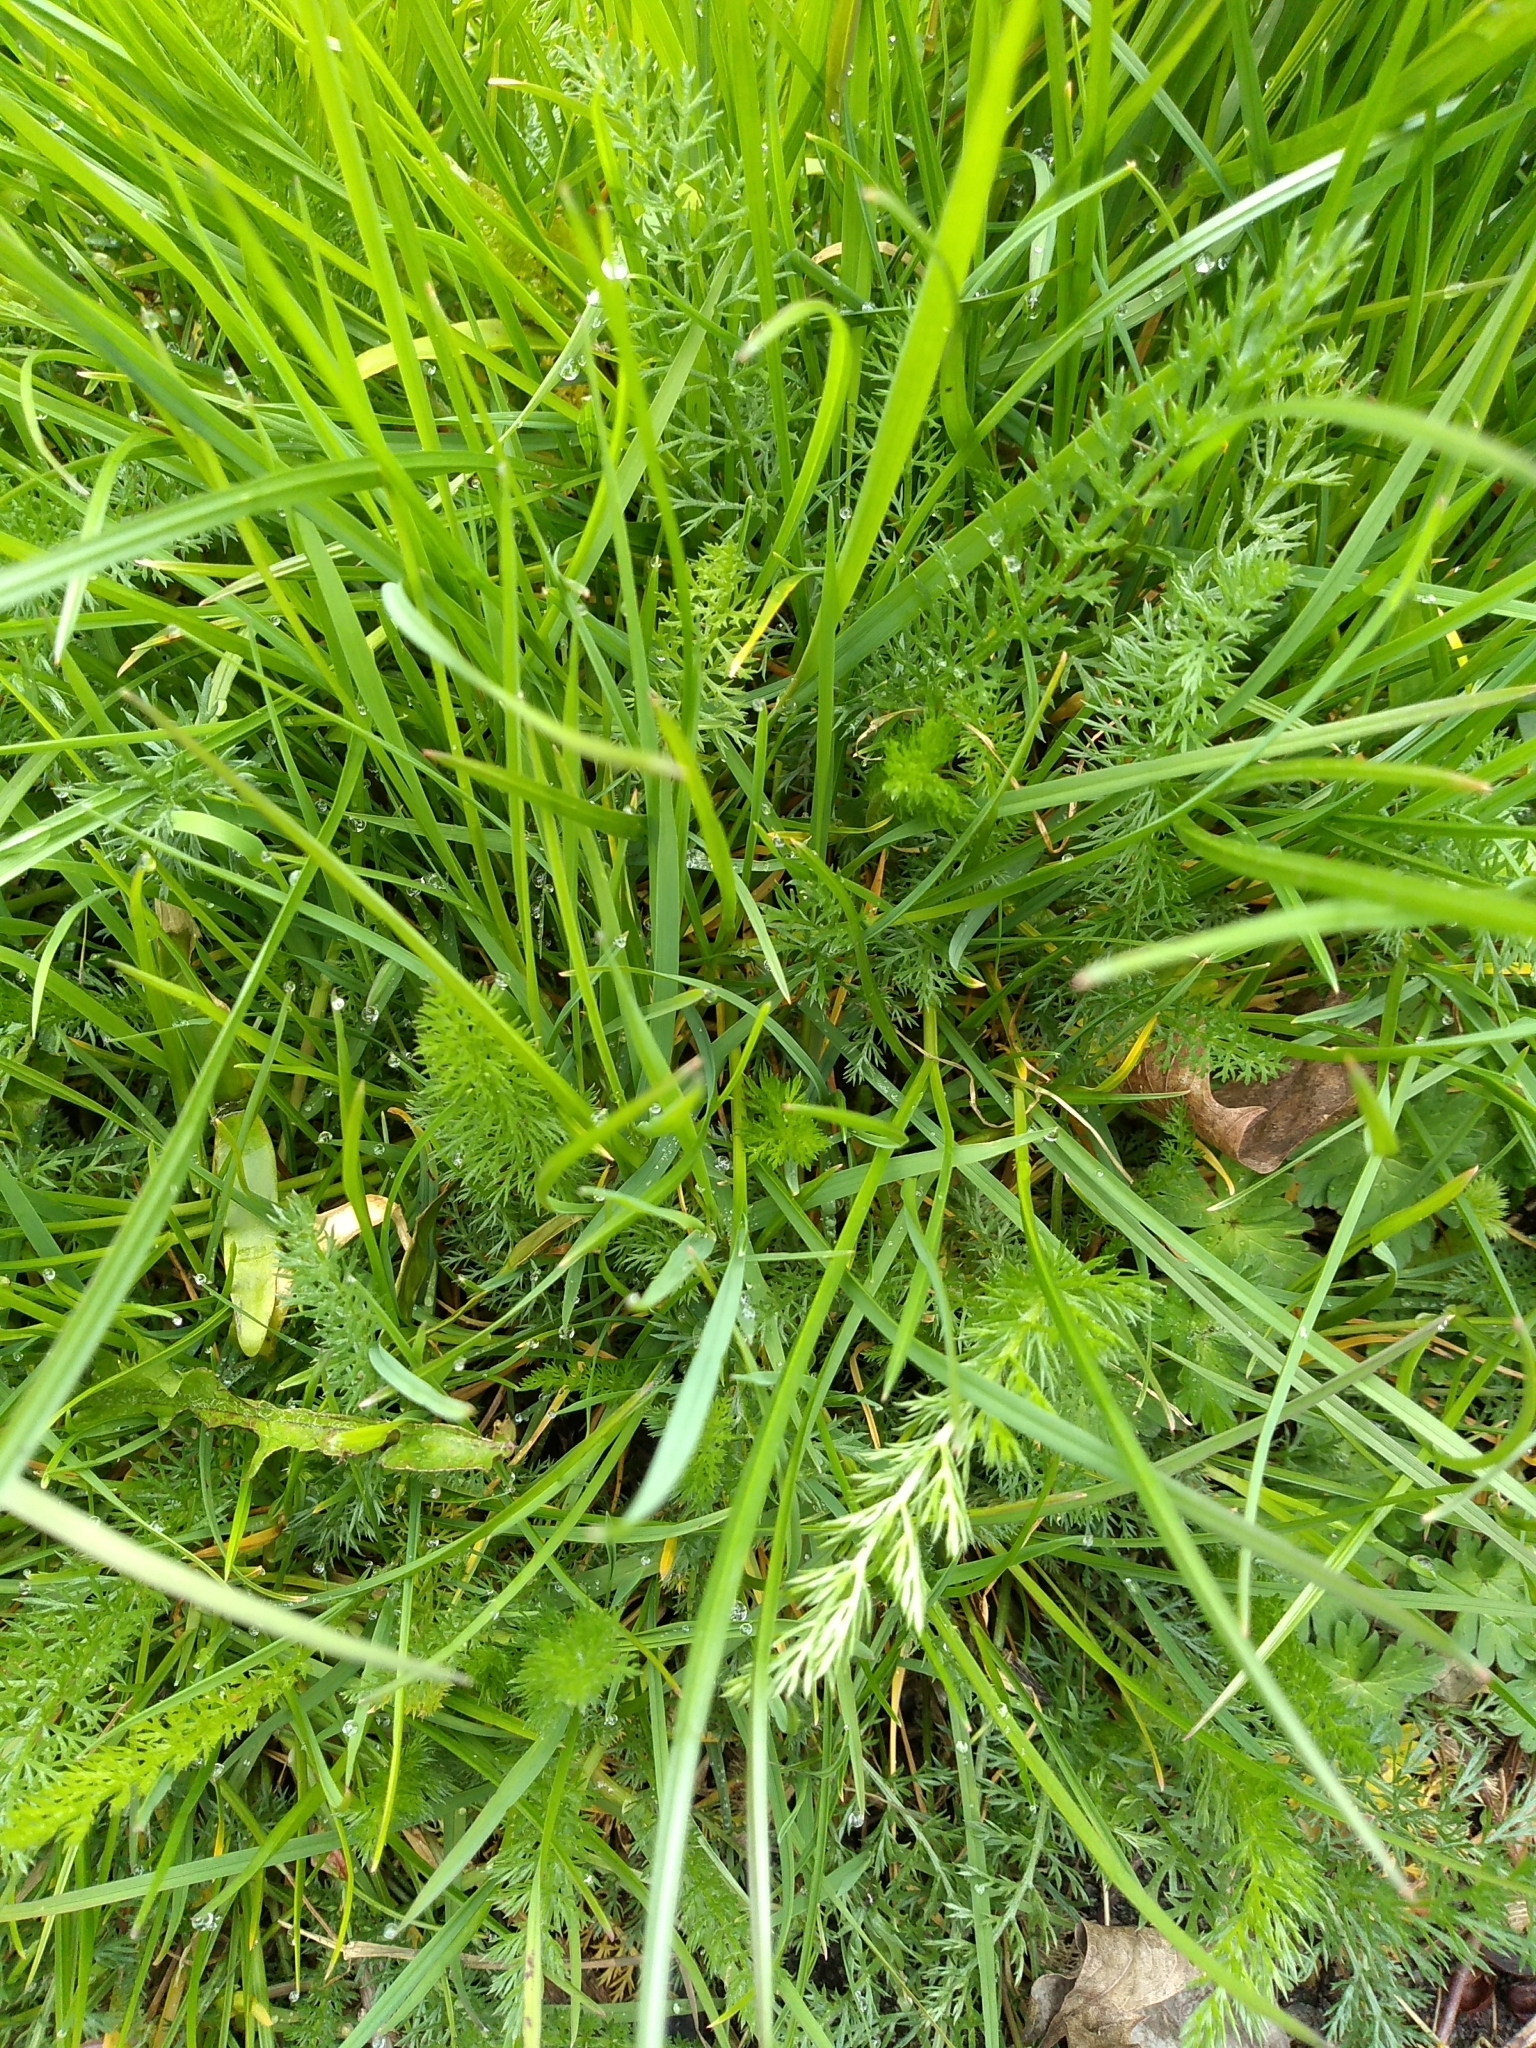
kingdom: Plantae
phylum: Tracheophyta
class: Magnoliopsida
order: Asterales
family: Asteraceae
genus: Achillea
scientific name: Achillea millefolium
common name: Yarrow
